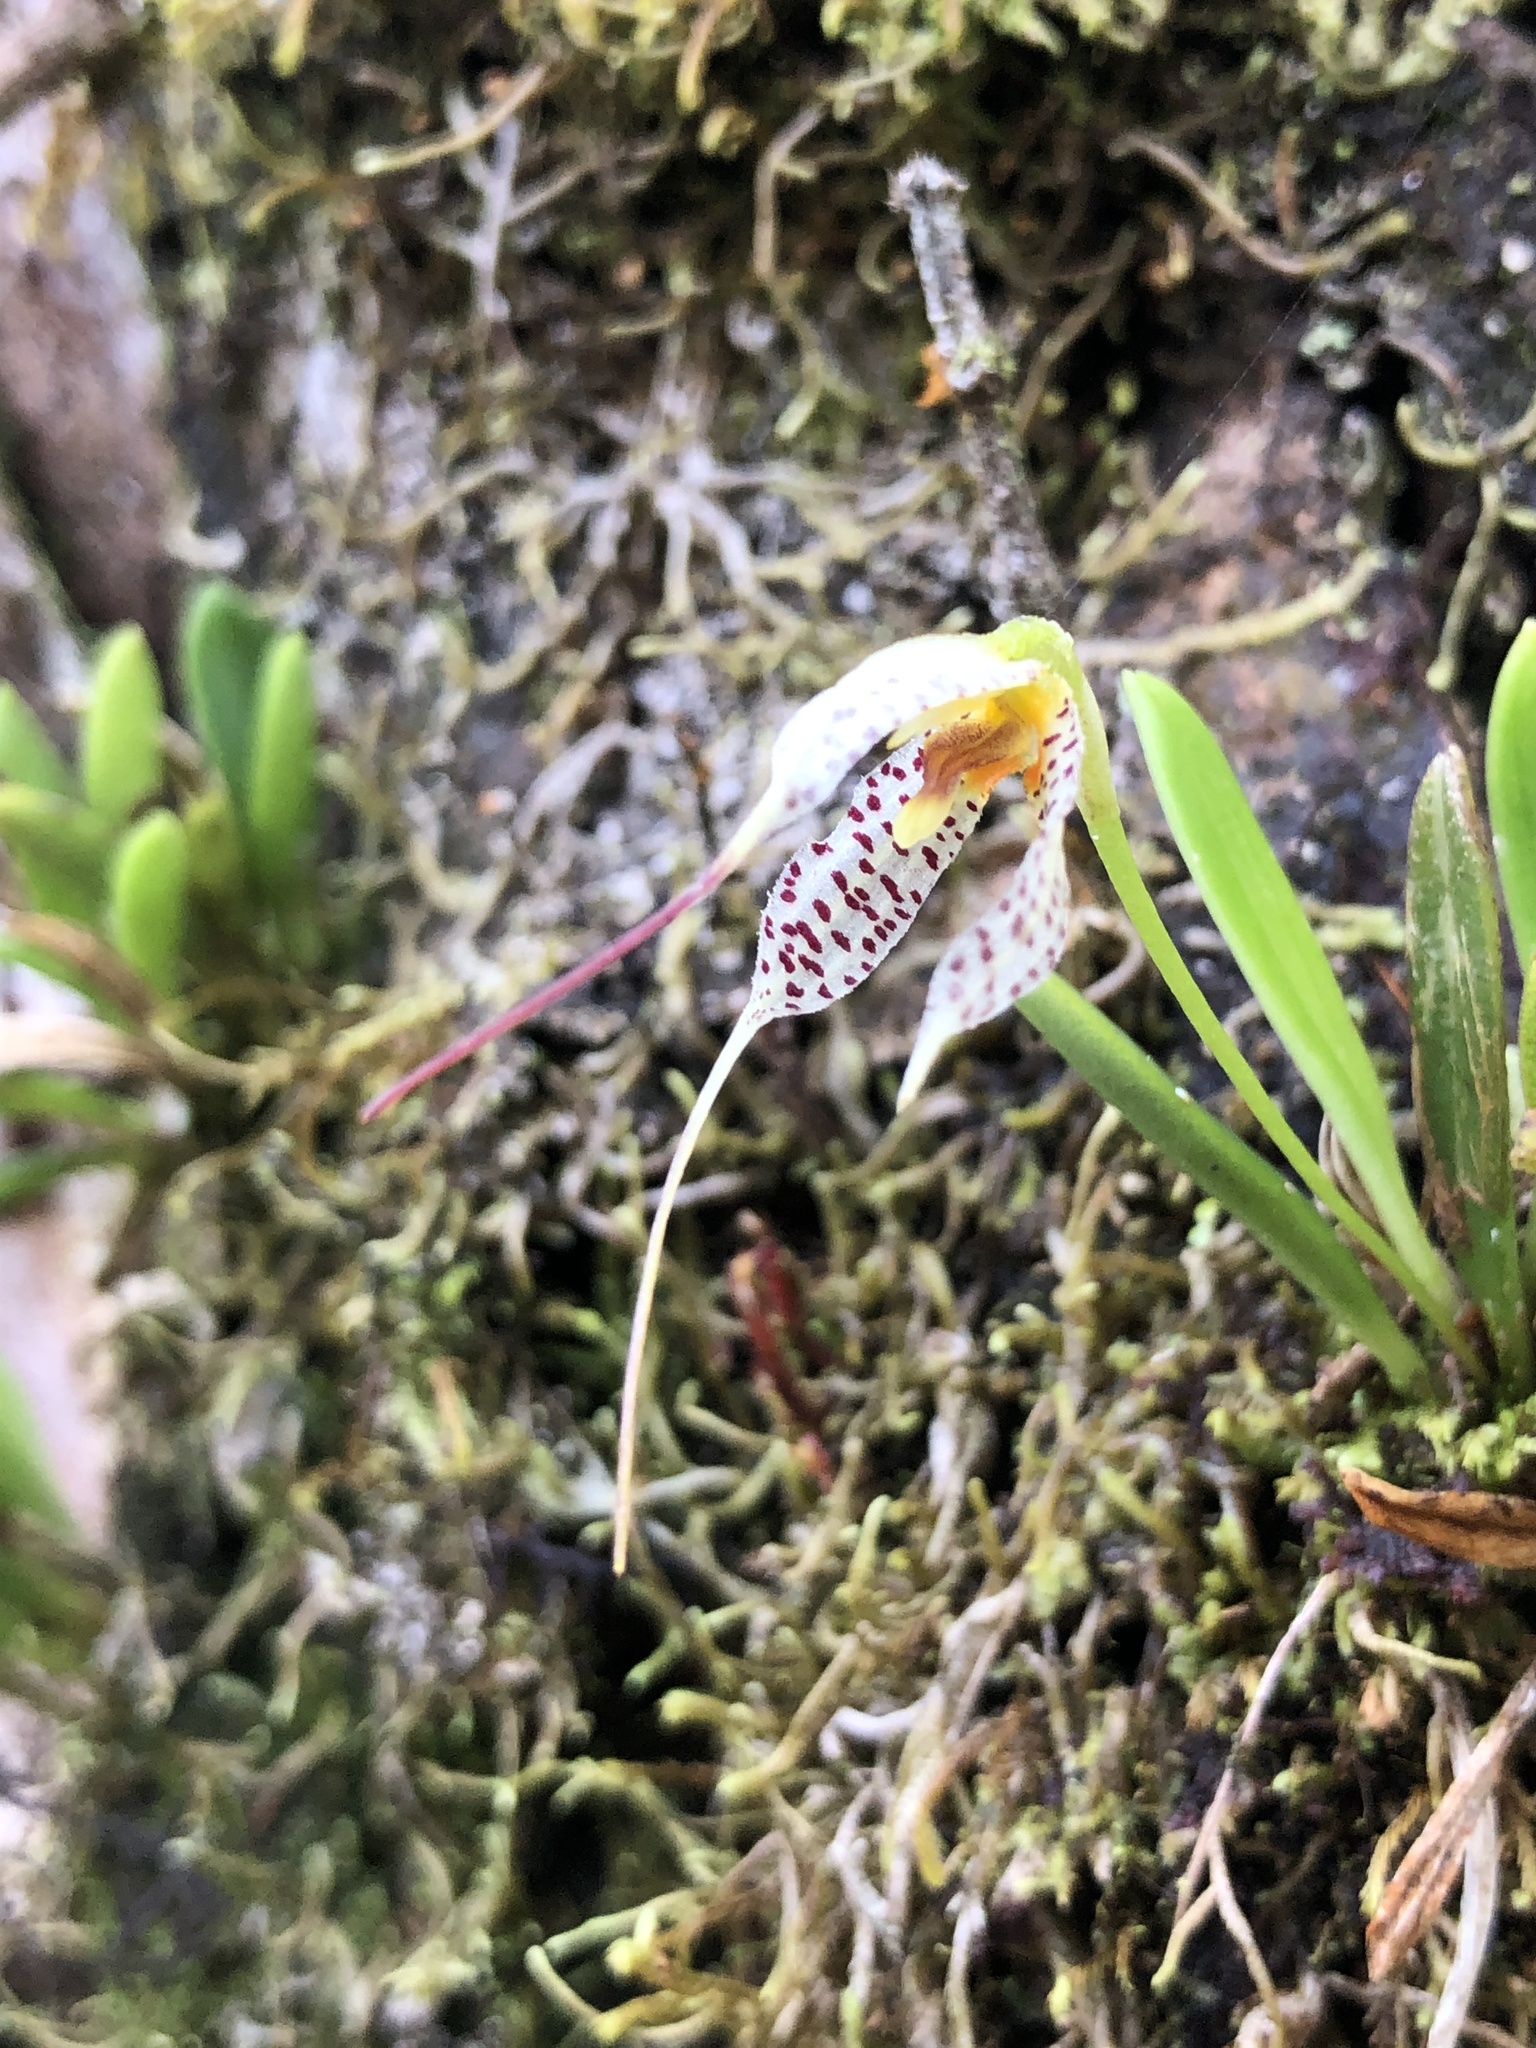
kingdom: Plantae
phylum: Tracheophyta
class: Liliopsida
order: Asparagales
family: Orchidaceae
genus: Masdevallia
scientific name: Masdevallia picturata
